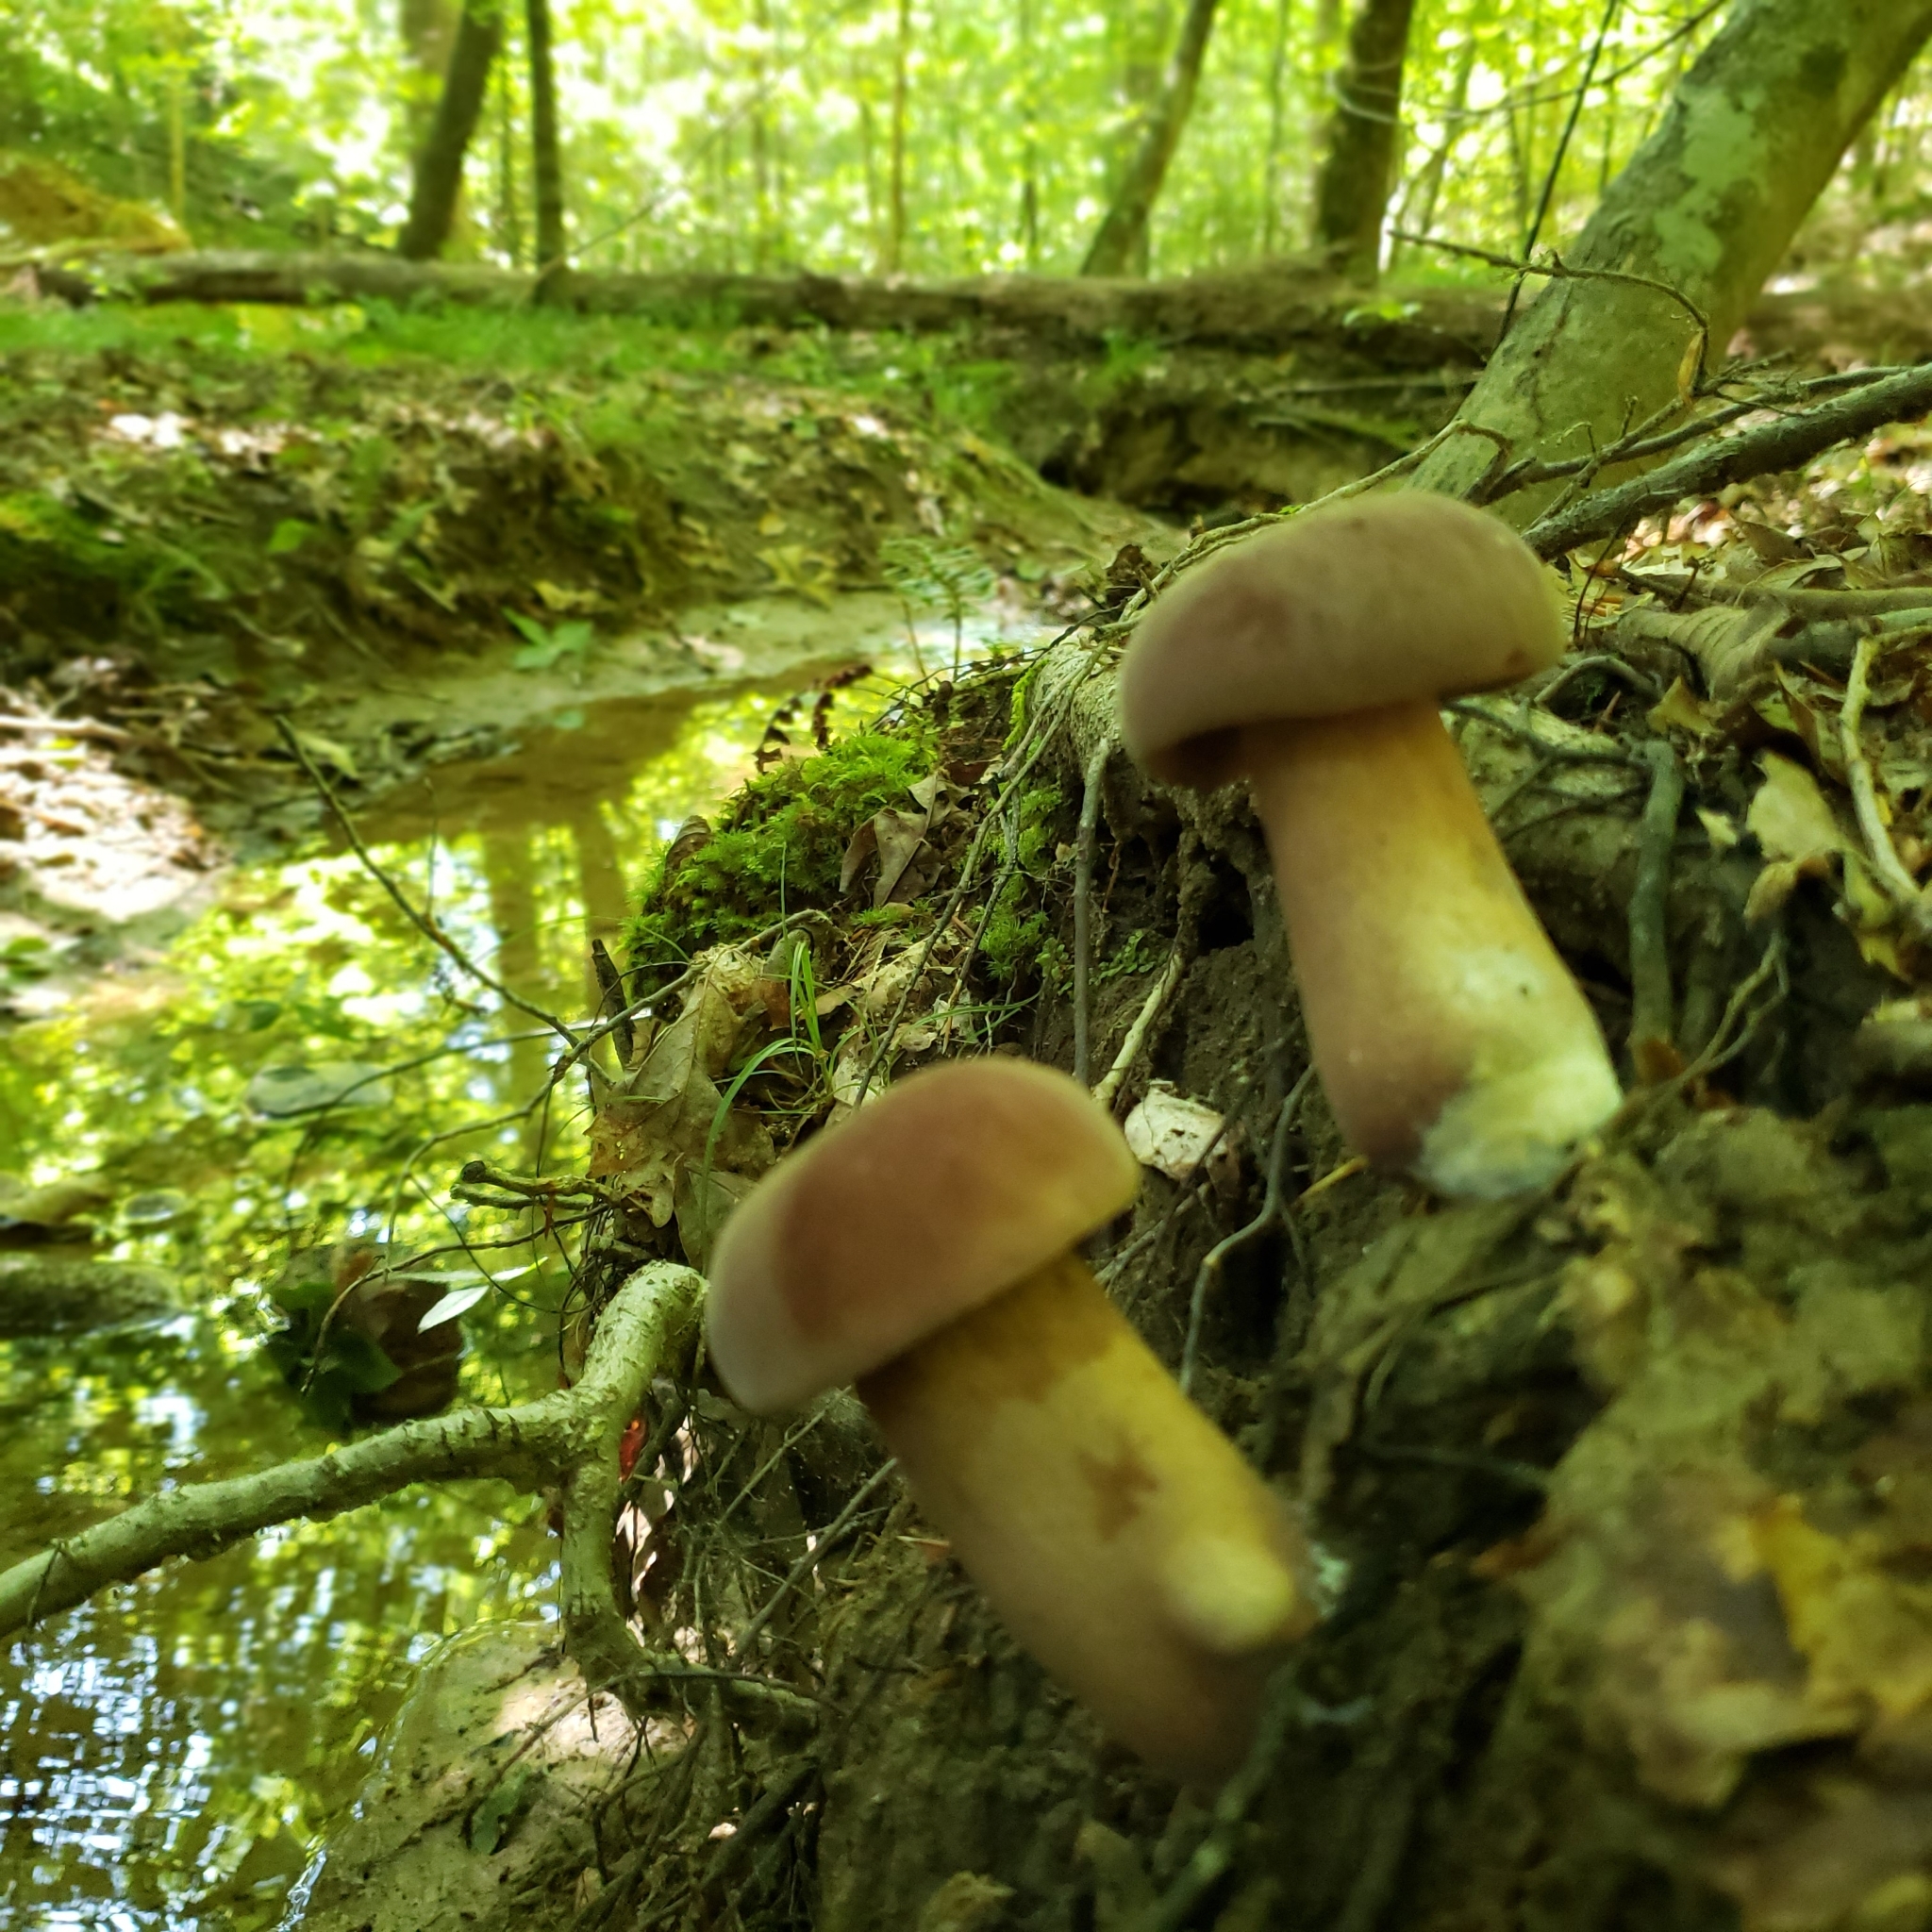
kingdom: Fungi
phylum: Basidiomycota
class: Agaricomycetes
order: Boletales
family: Boletaceae
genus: Tylopilus
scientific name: Tylopilus rubrobrunneus
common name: Reddish brown bitter bolete
